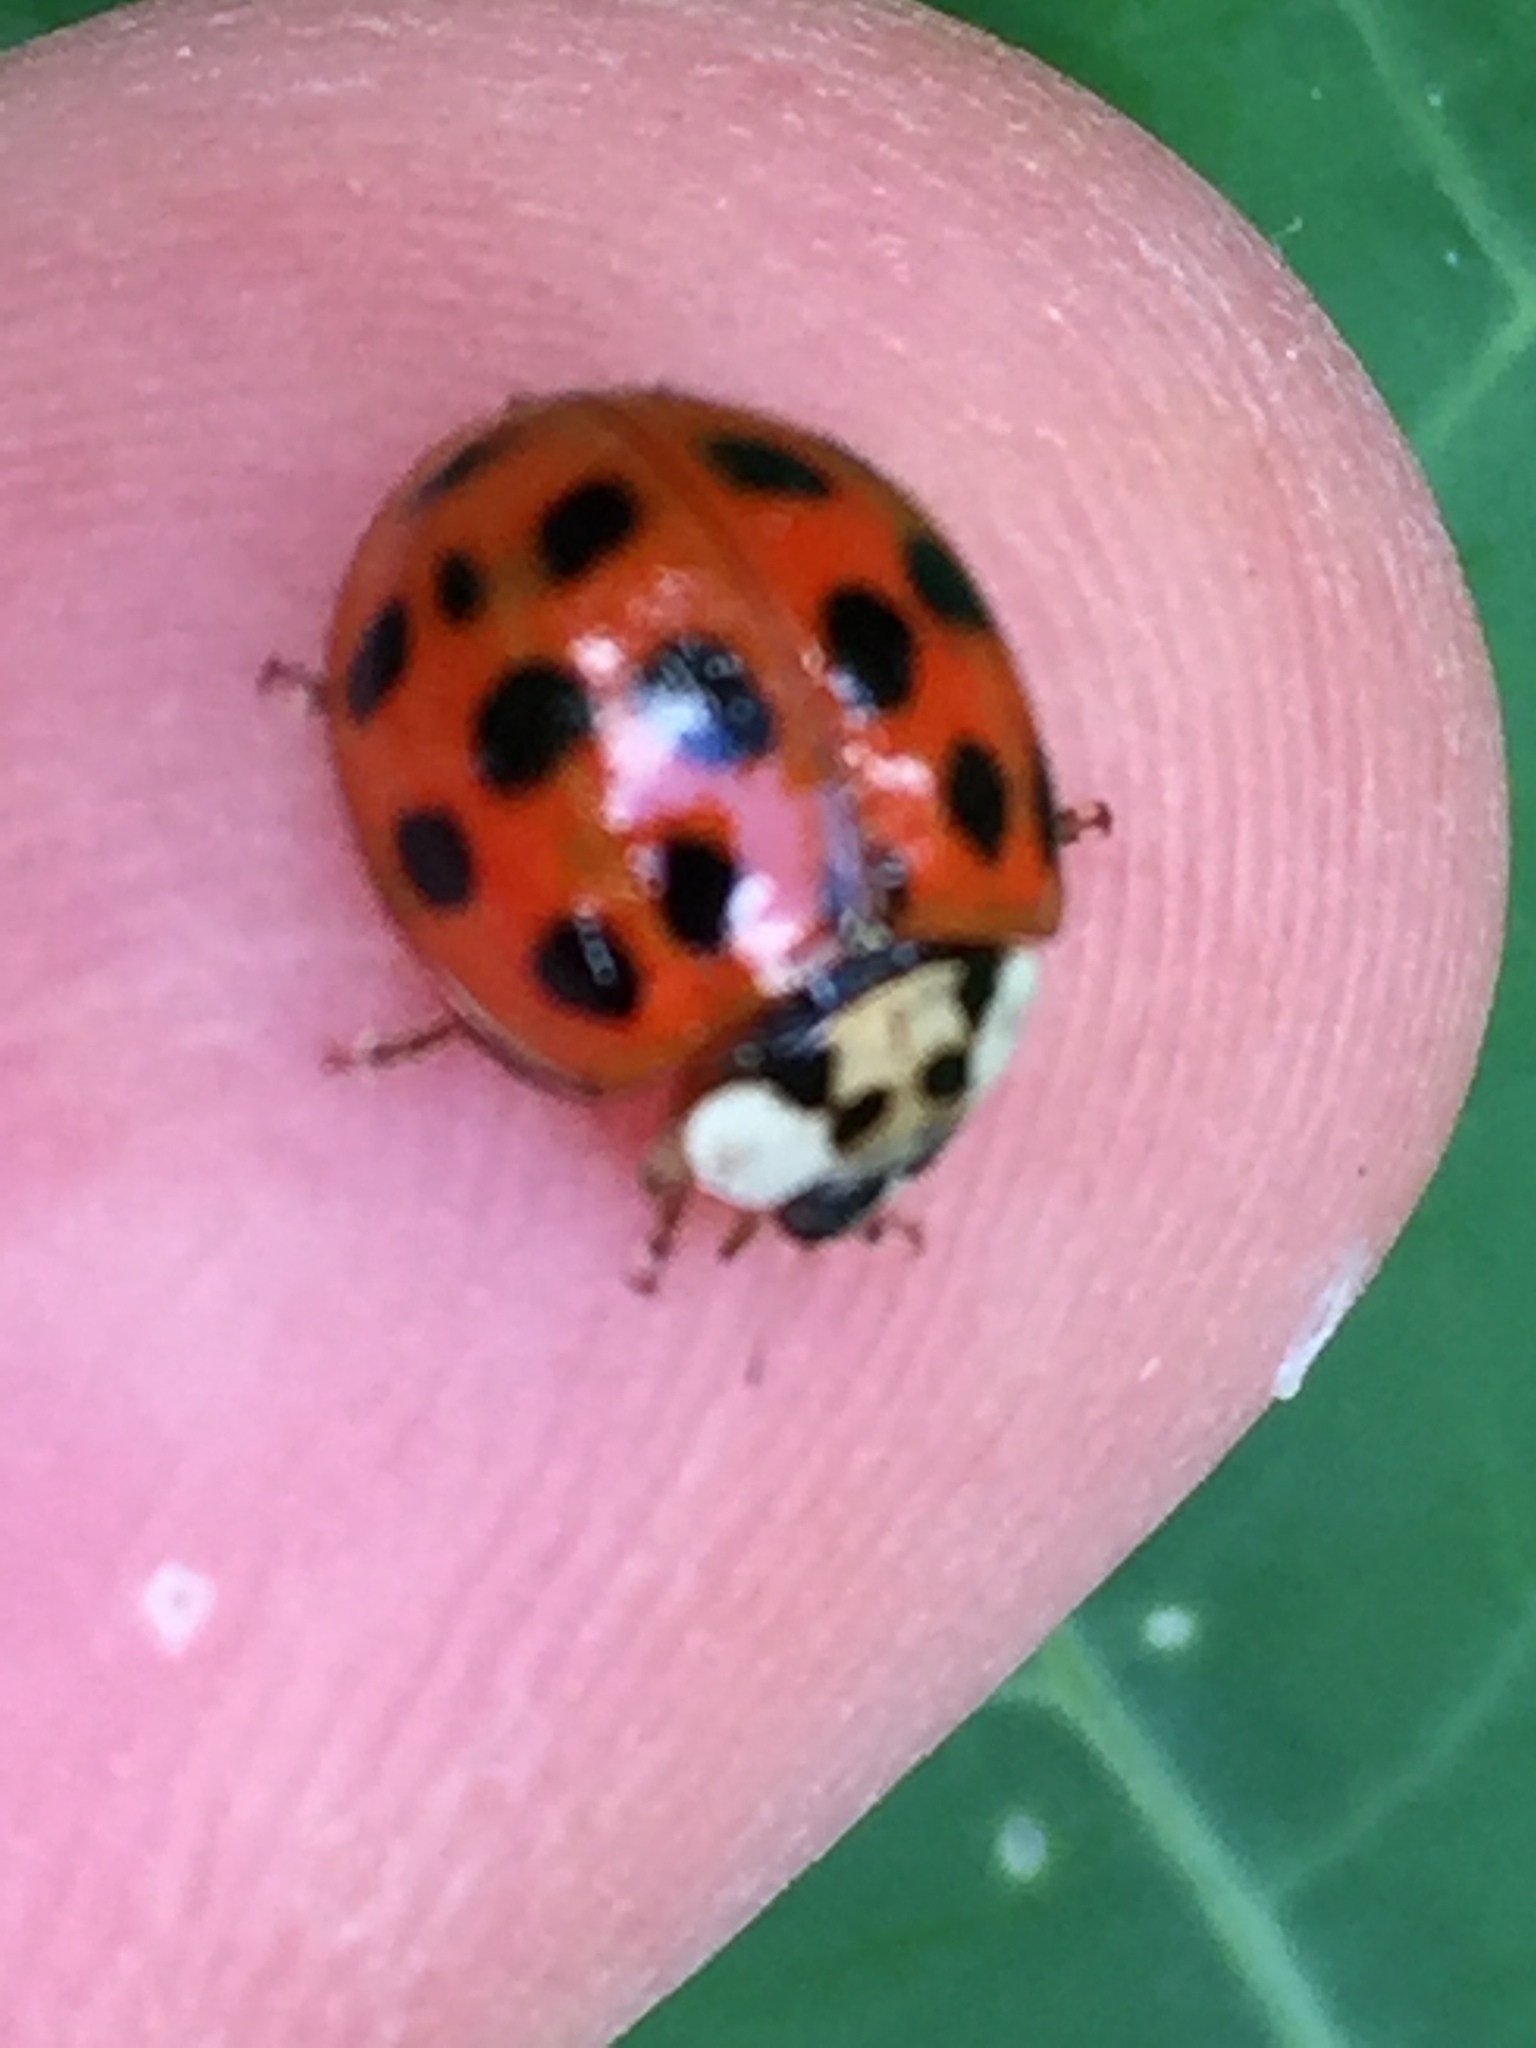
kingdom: Animalia
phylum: Arthropoda
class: Insecta
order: Coleoptera
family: Coccinellidae
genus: Harmonia
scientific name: Harmonia axyridis
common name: Harlequin ladybird
